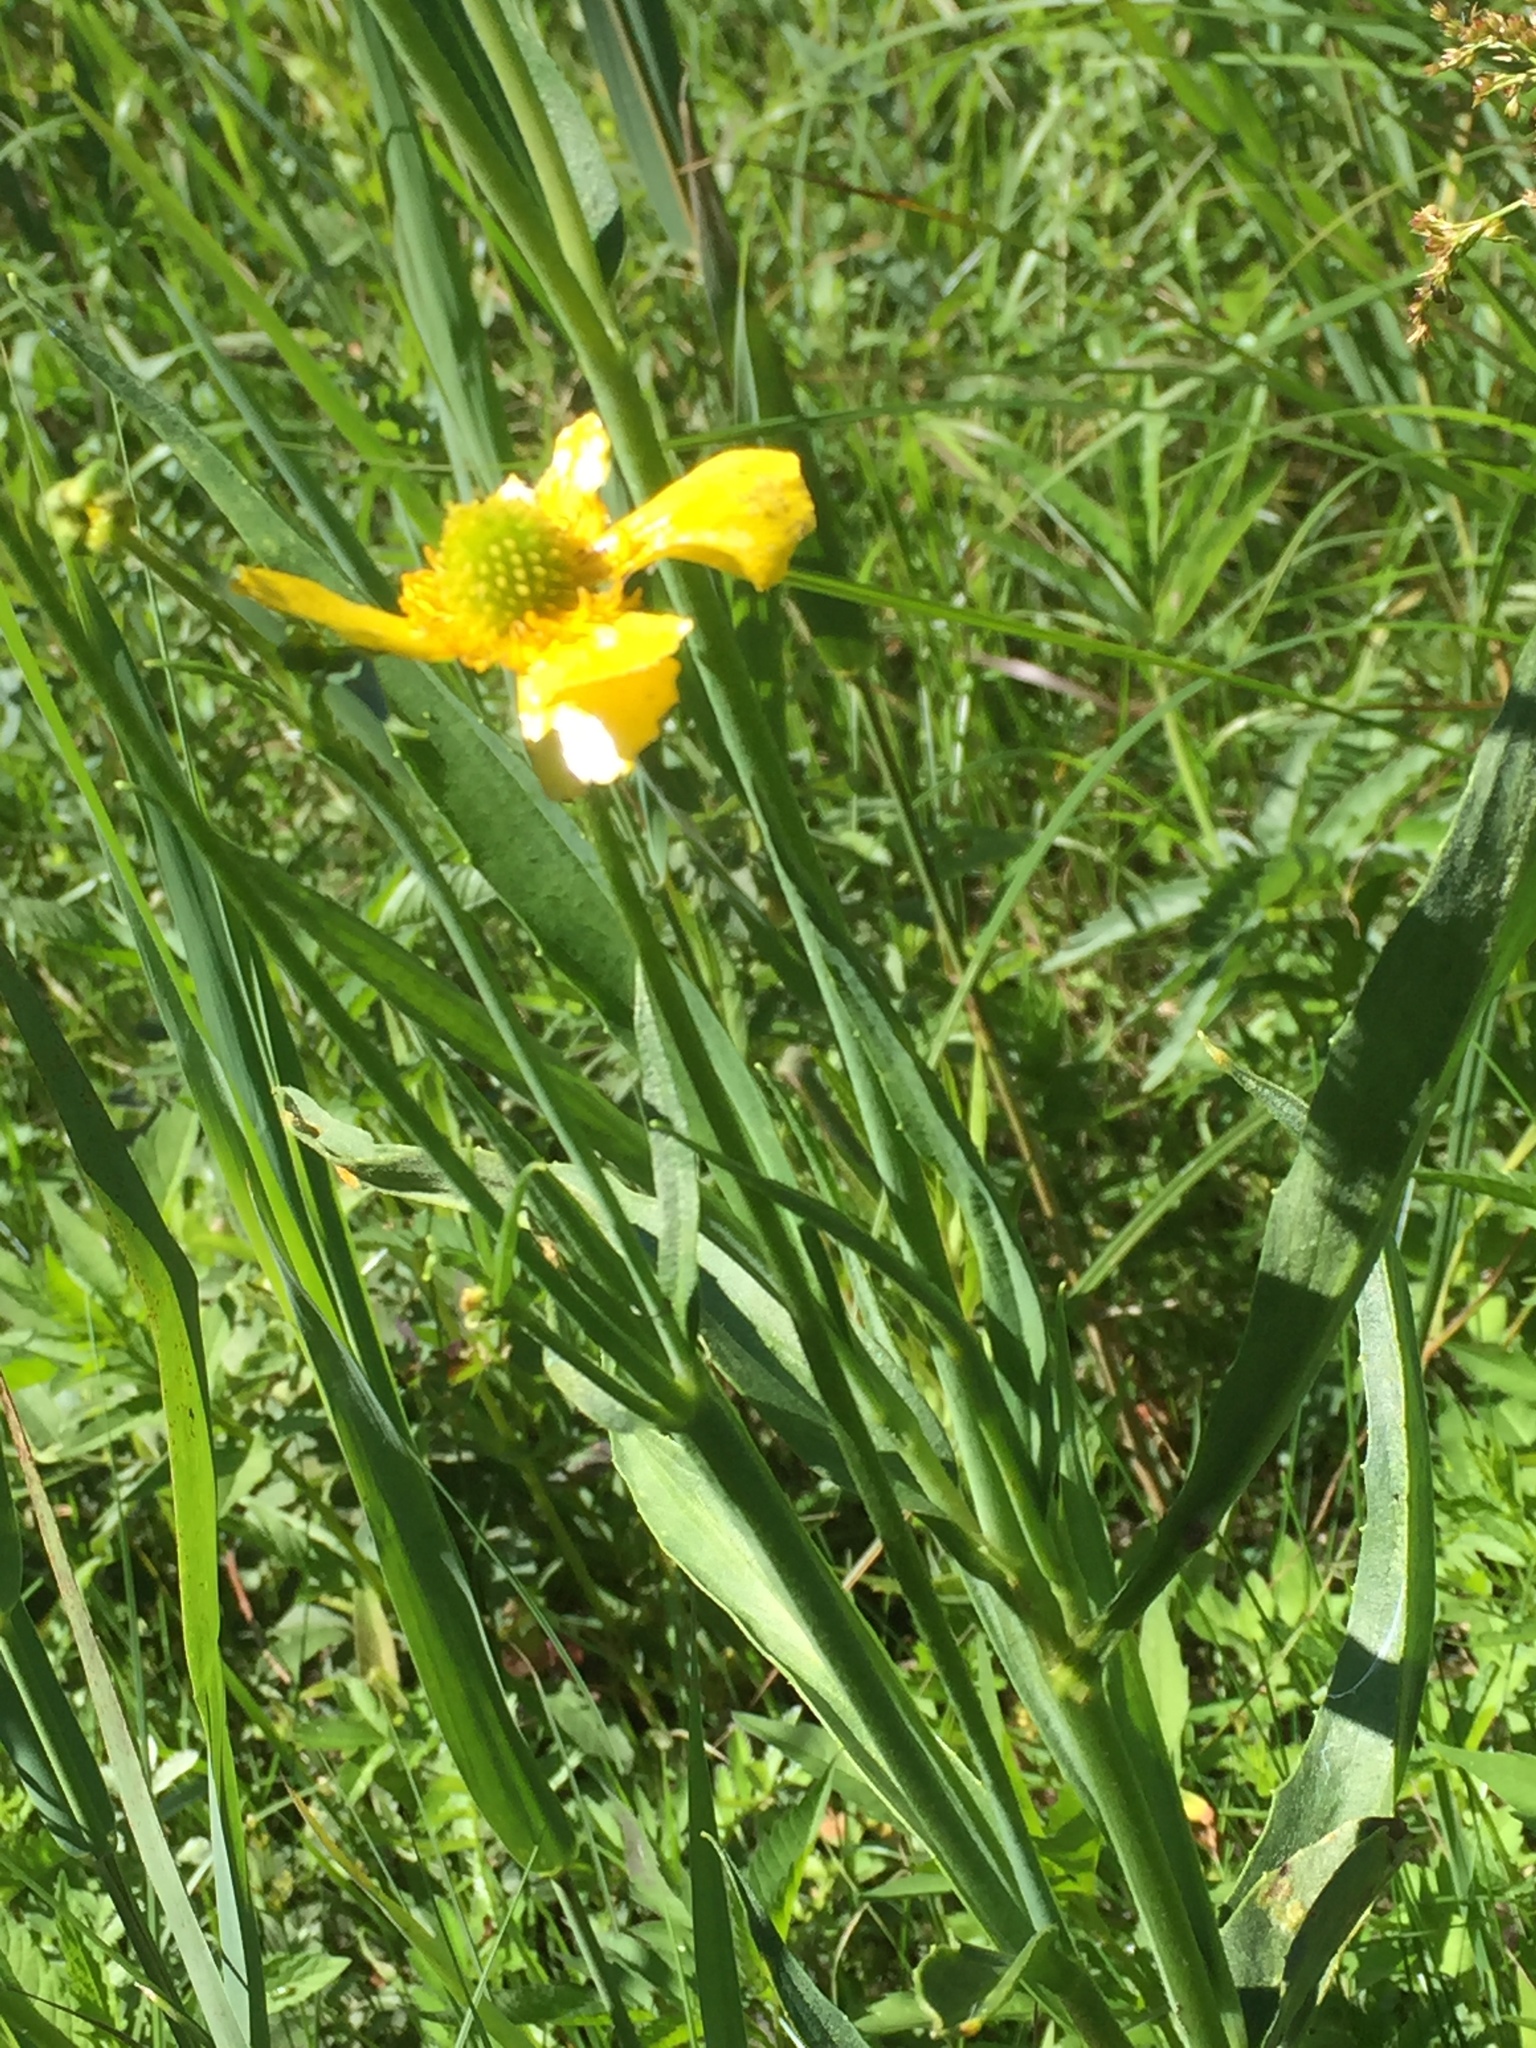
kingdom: Plantae
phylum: Tracheophyta
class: Magnoliopsida
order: Ranunculales
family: Ranunculaceae
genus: Ranunculus
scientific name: Ranunculus lingua
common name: Greater spearwort
